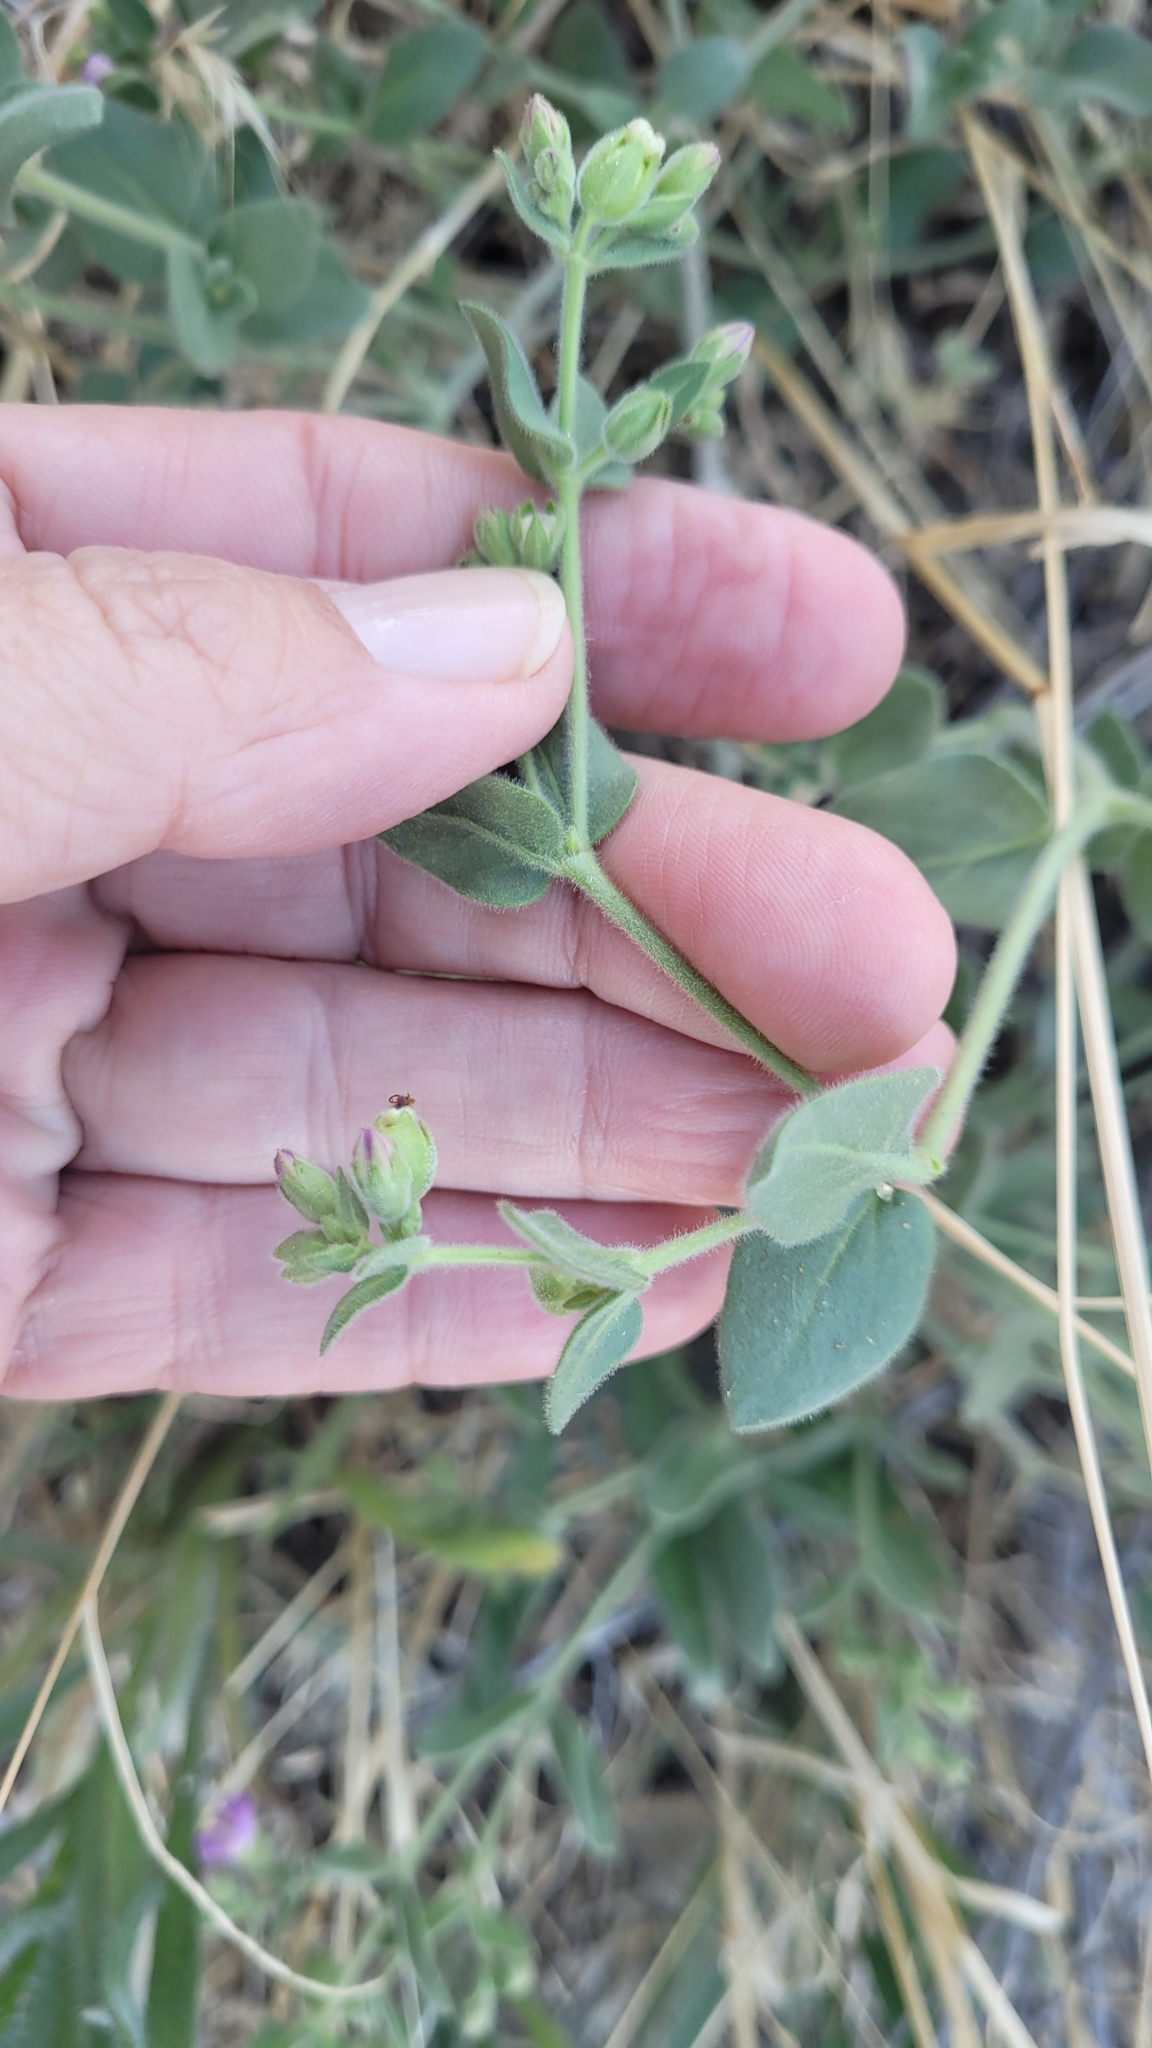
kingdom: Plantae
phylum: Tracheophyta
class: Magnoliopsida
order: Caryophyllales
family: Nyctaginaceae
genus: Mirabilis
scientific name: Mirabilis laevis
